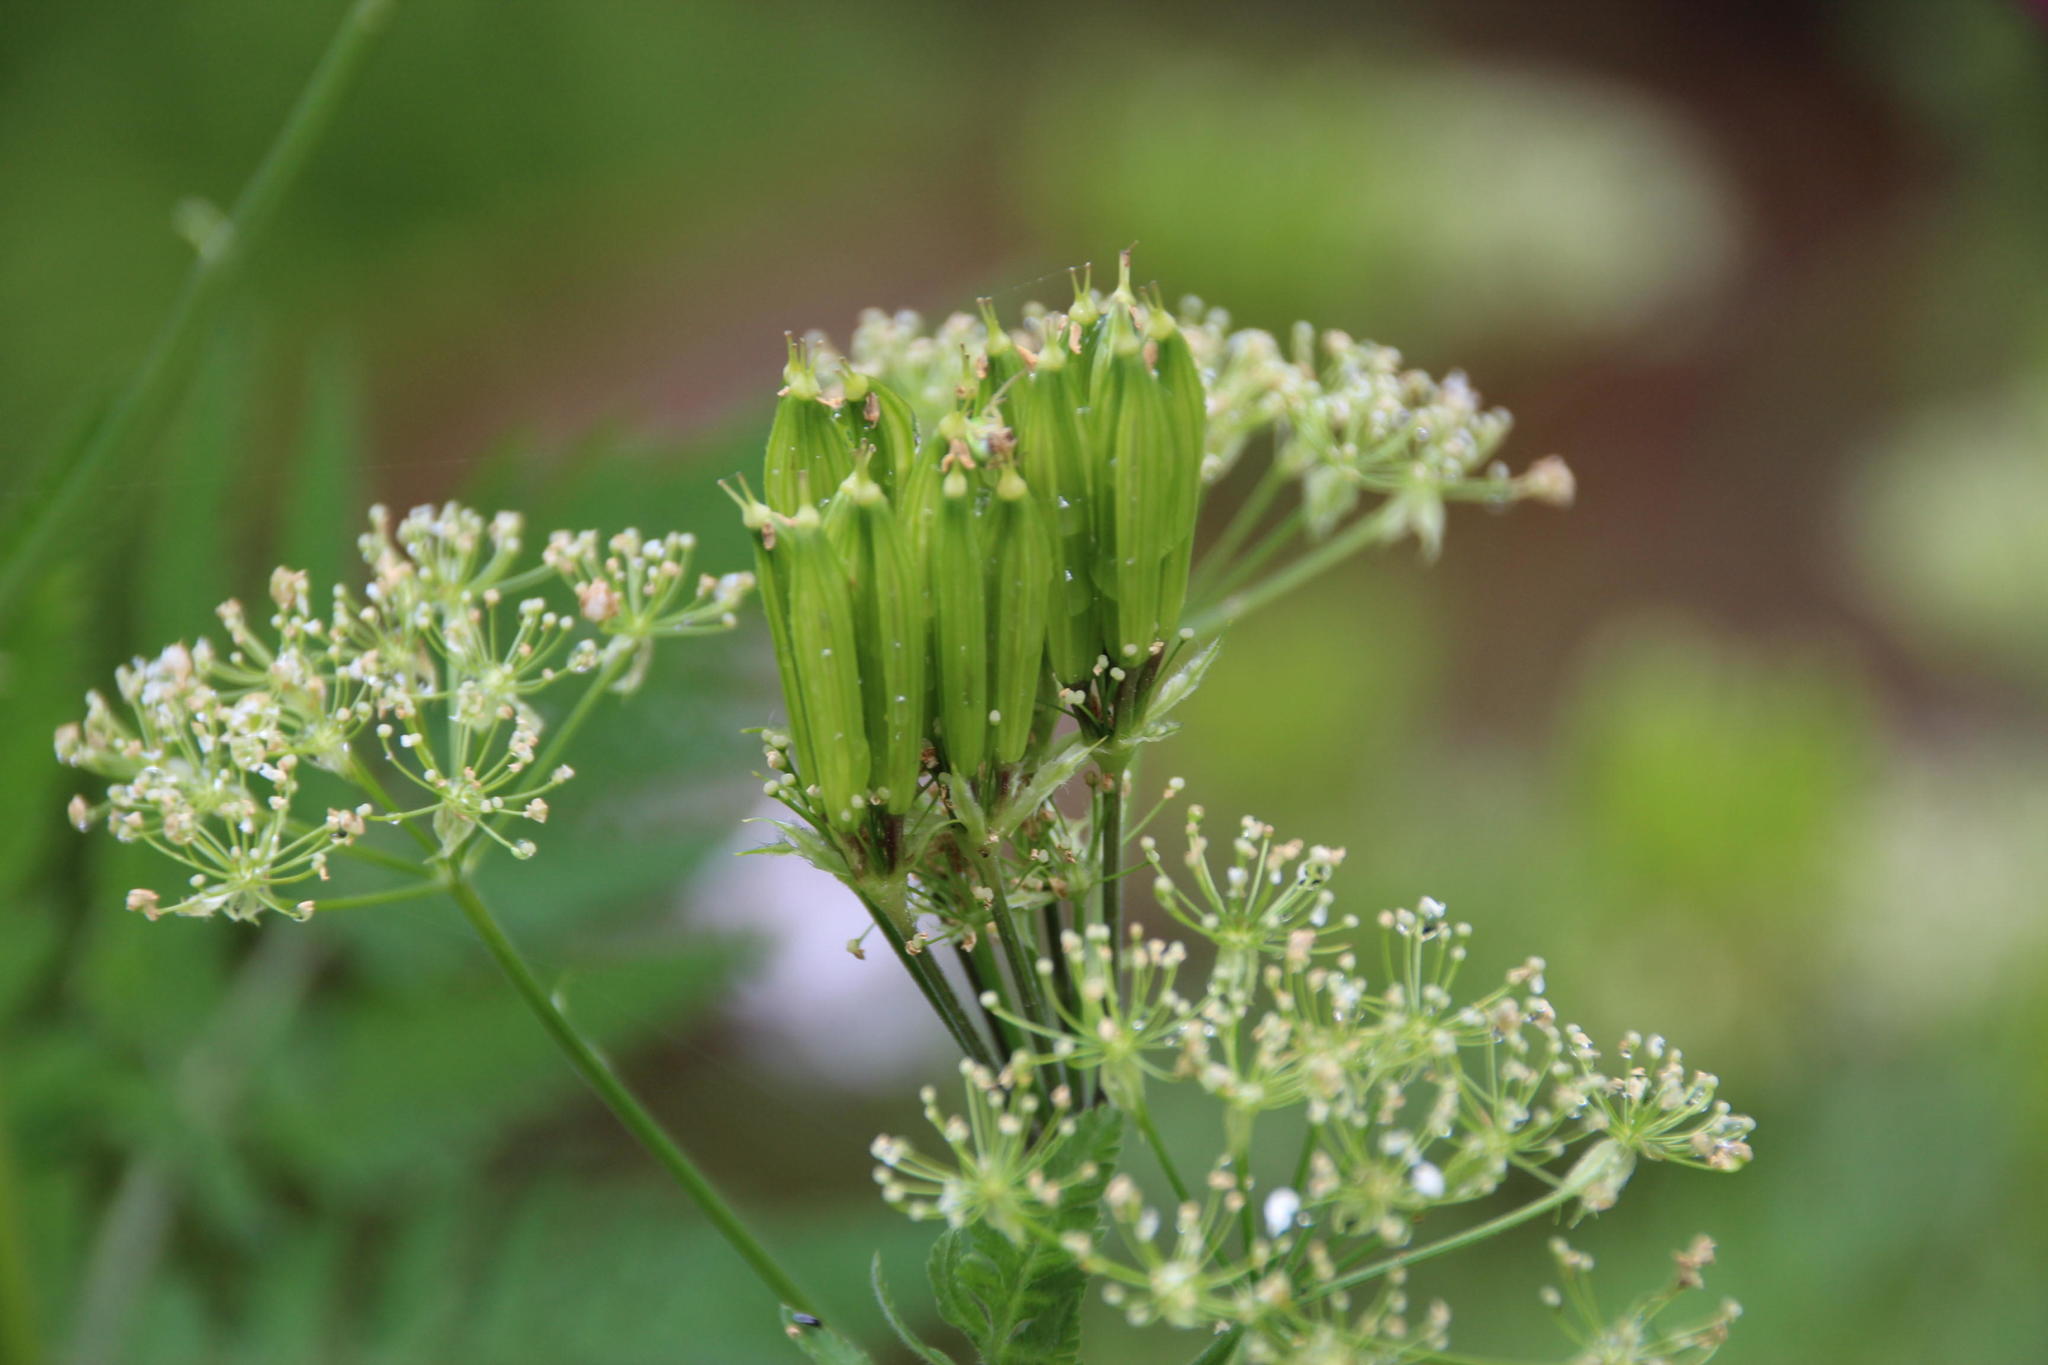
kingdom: Plantae
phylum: Tracheophyta
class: Magnoliopsida
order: Apiales
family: Apiaceae
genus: Myrrhis
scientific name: Myrrhis odorata
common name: Sweet cicely
